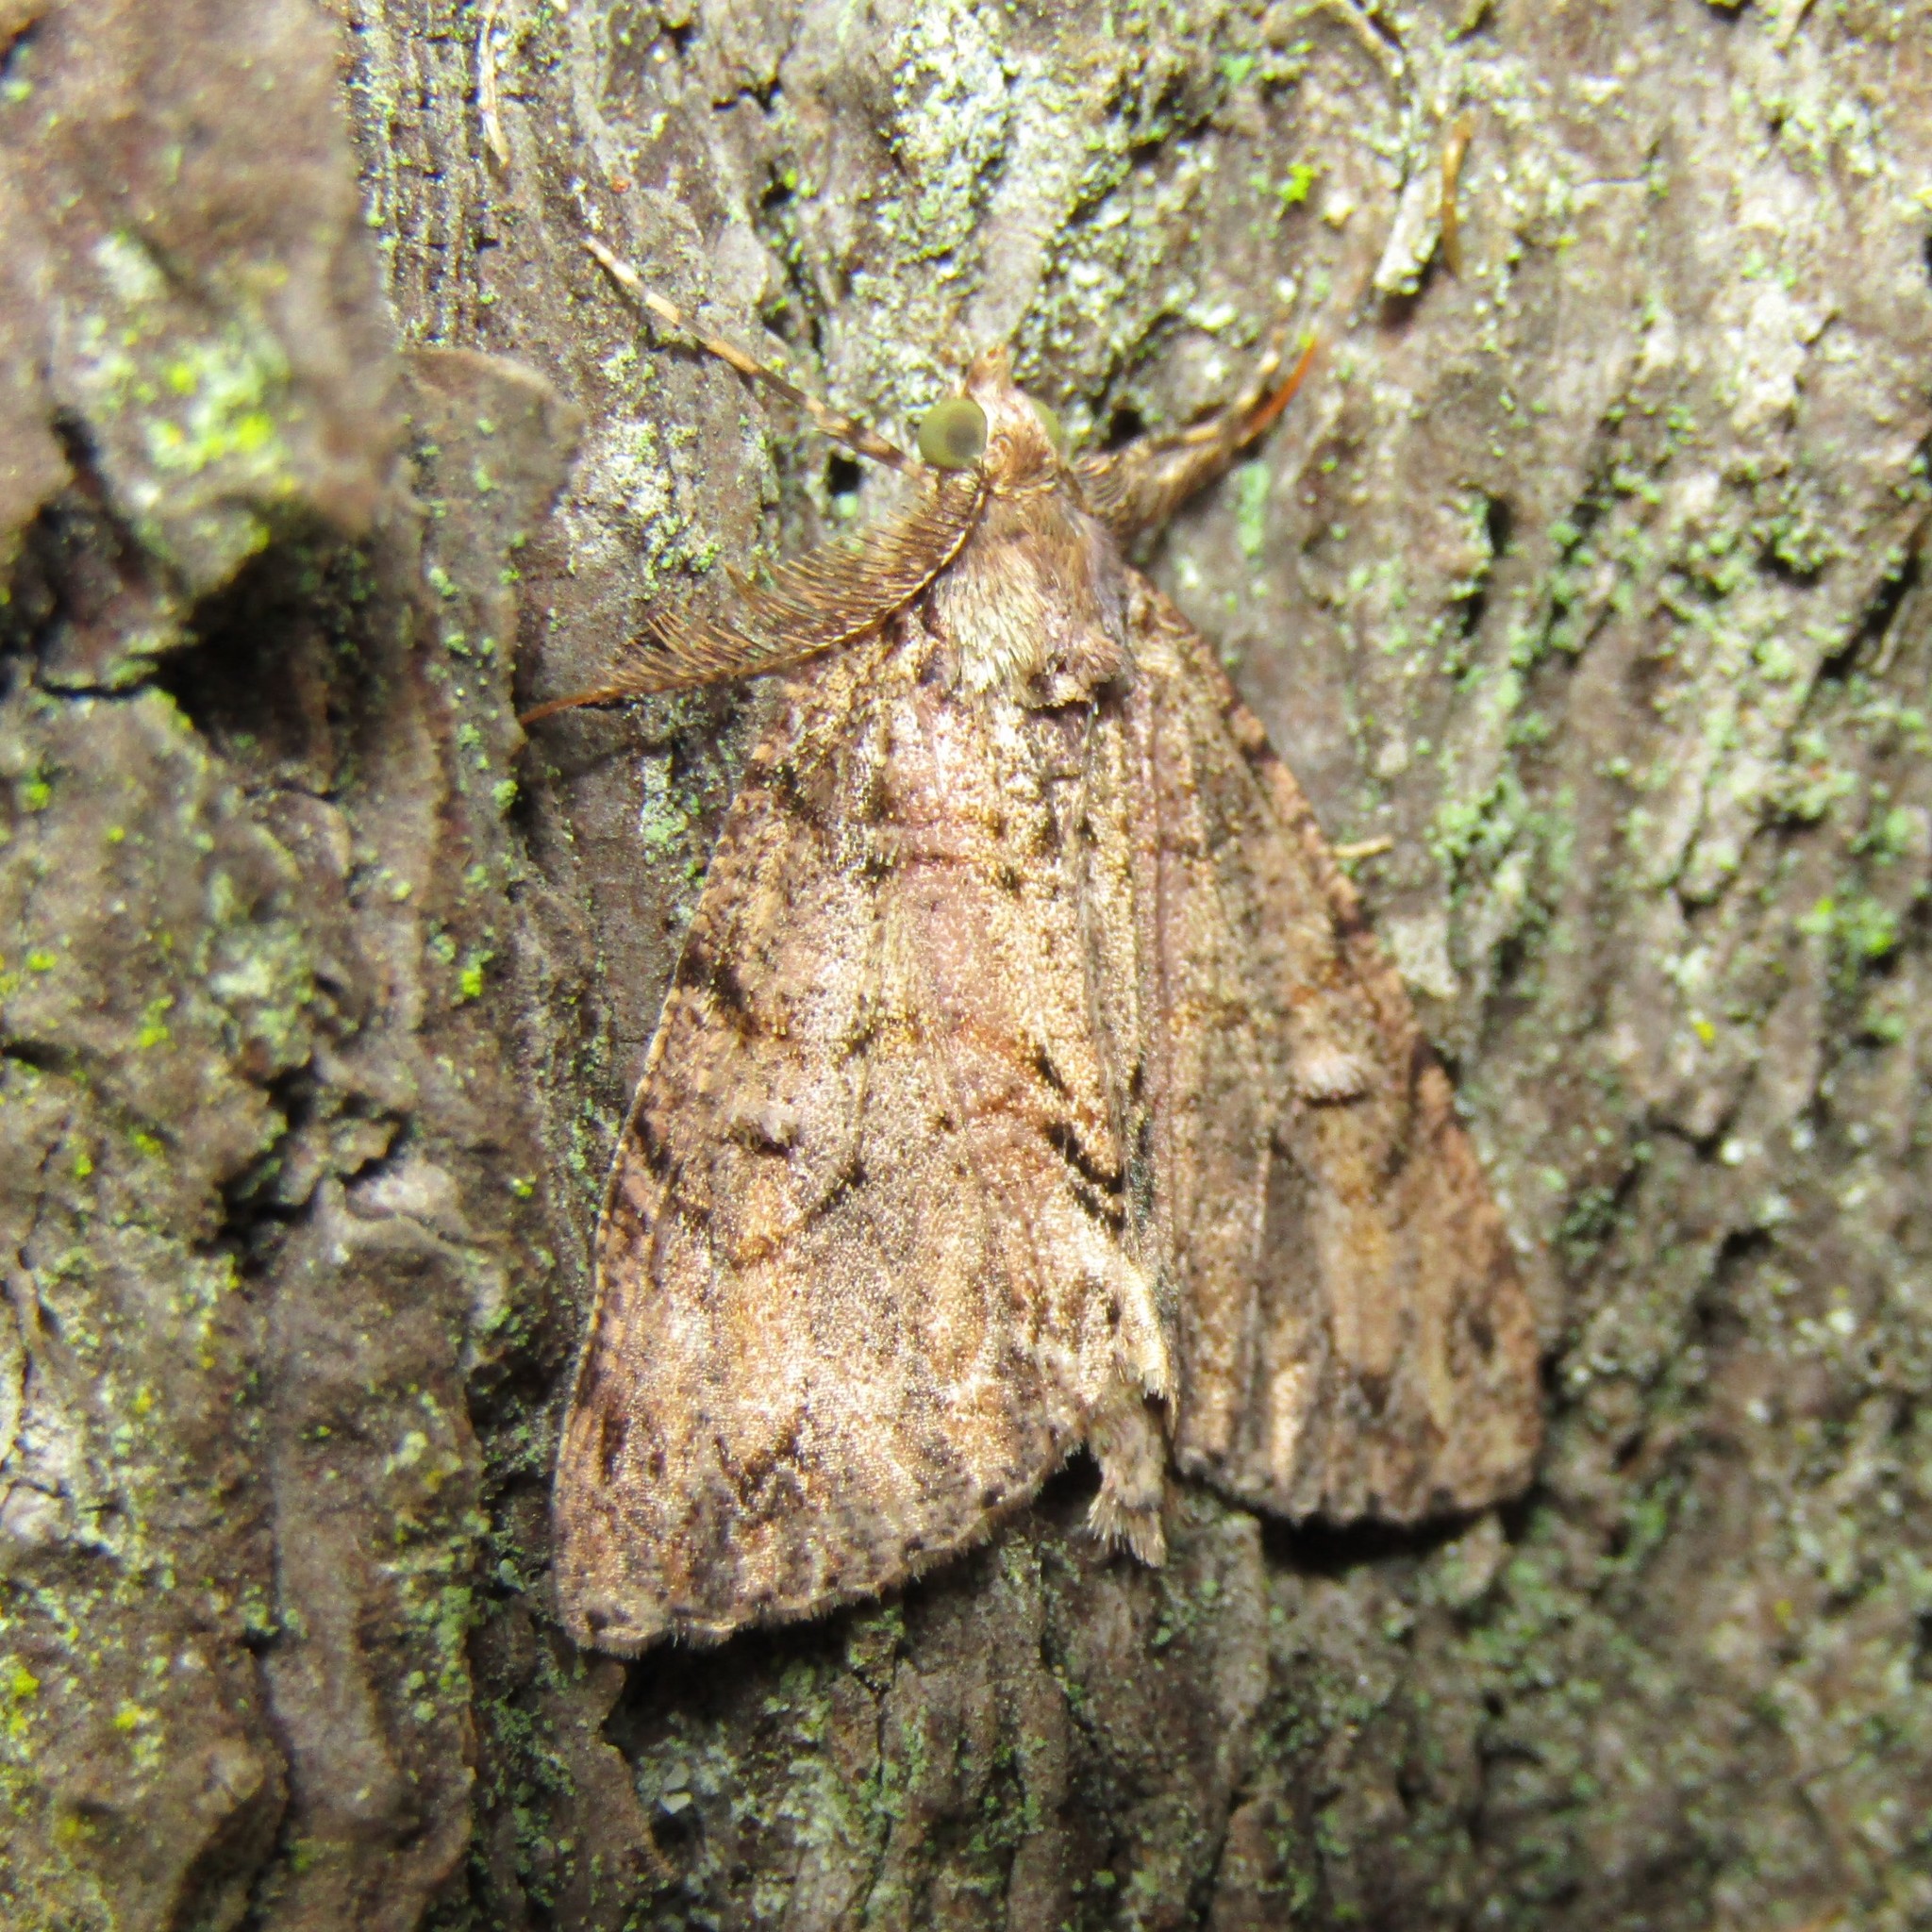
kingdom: Animalia
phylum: Arthropoda
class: Insecta
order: Lepidoptera
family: Geometridae
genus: Pseudocoremia
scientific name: Pseudocoremia suavis
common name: Common forest looper
